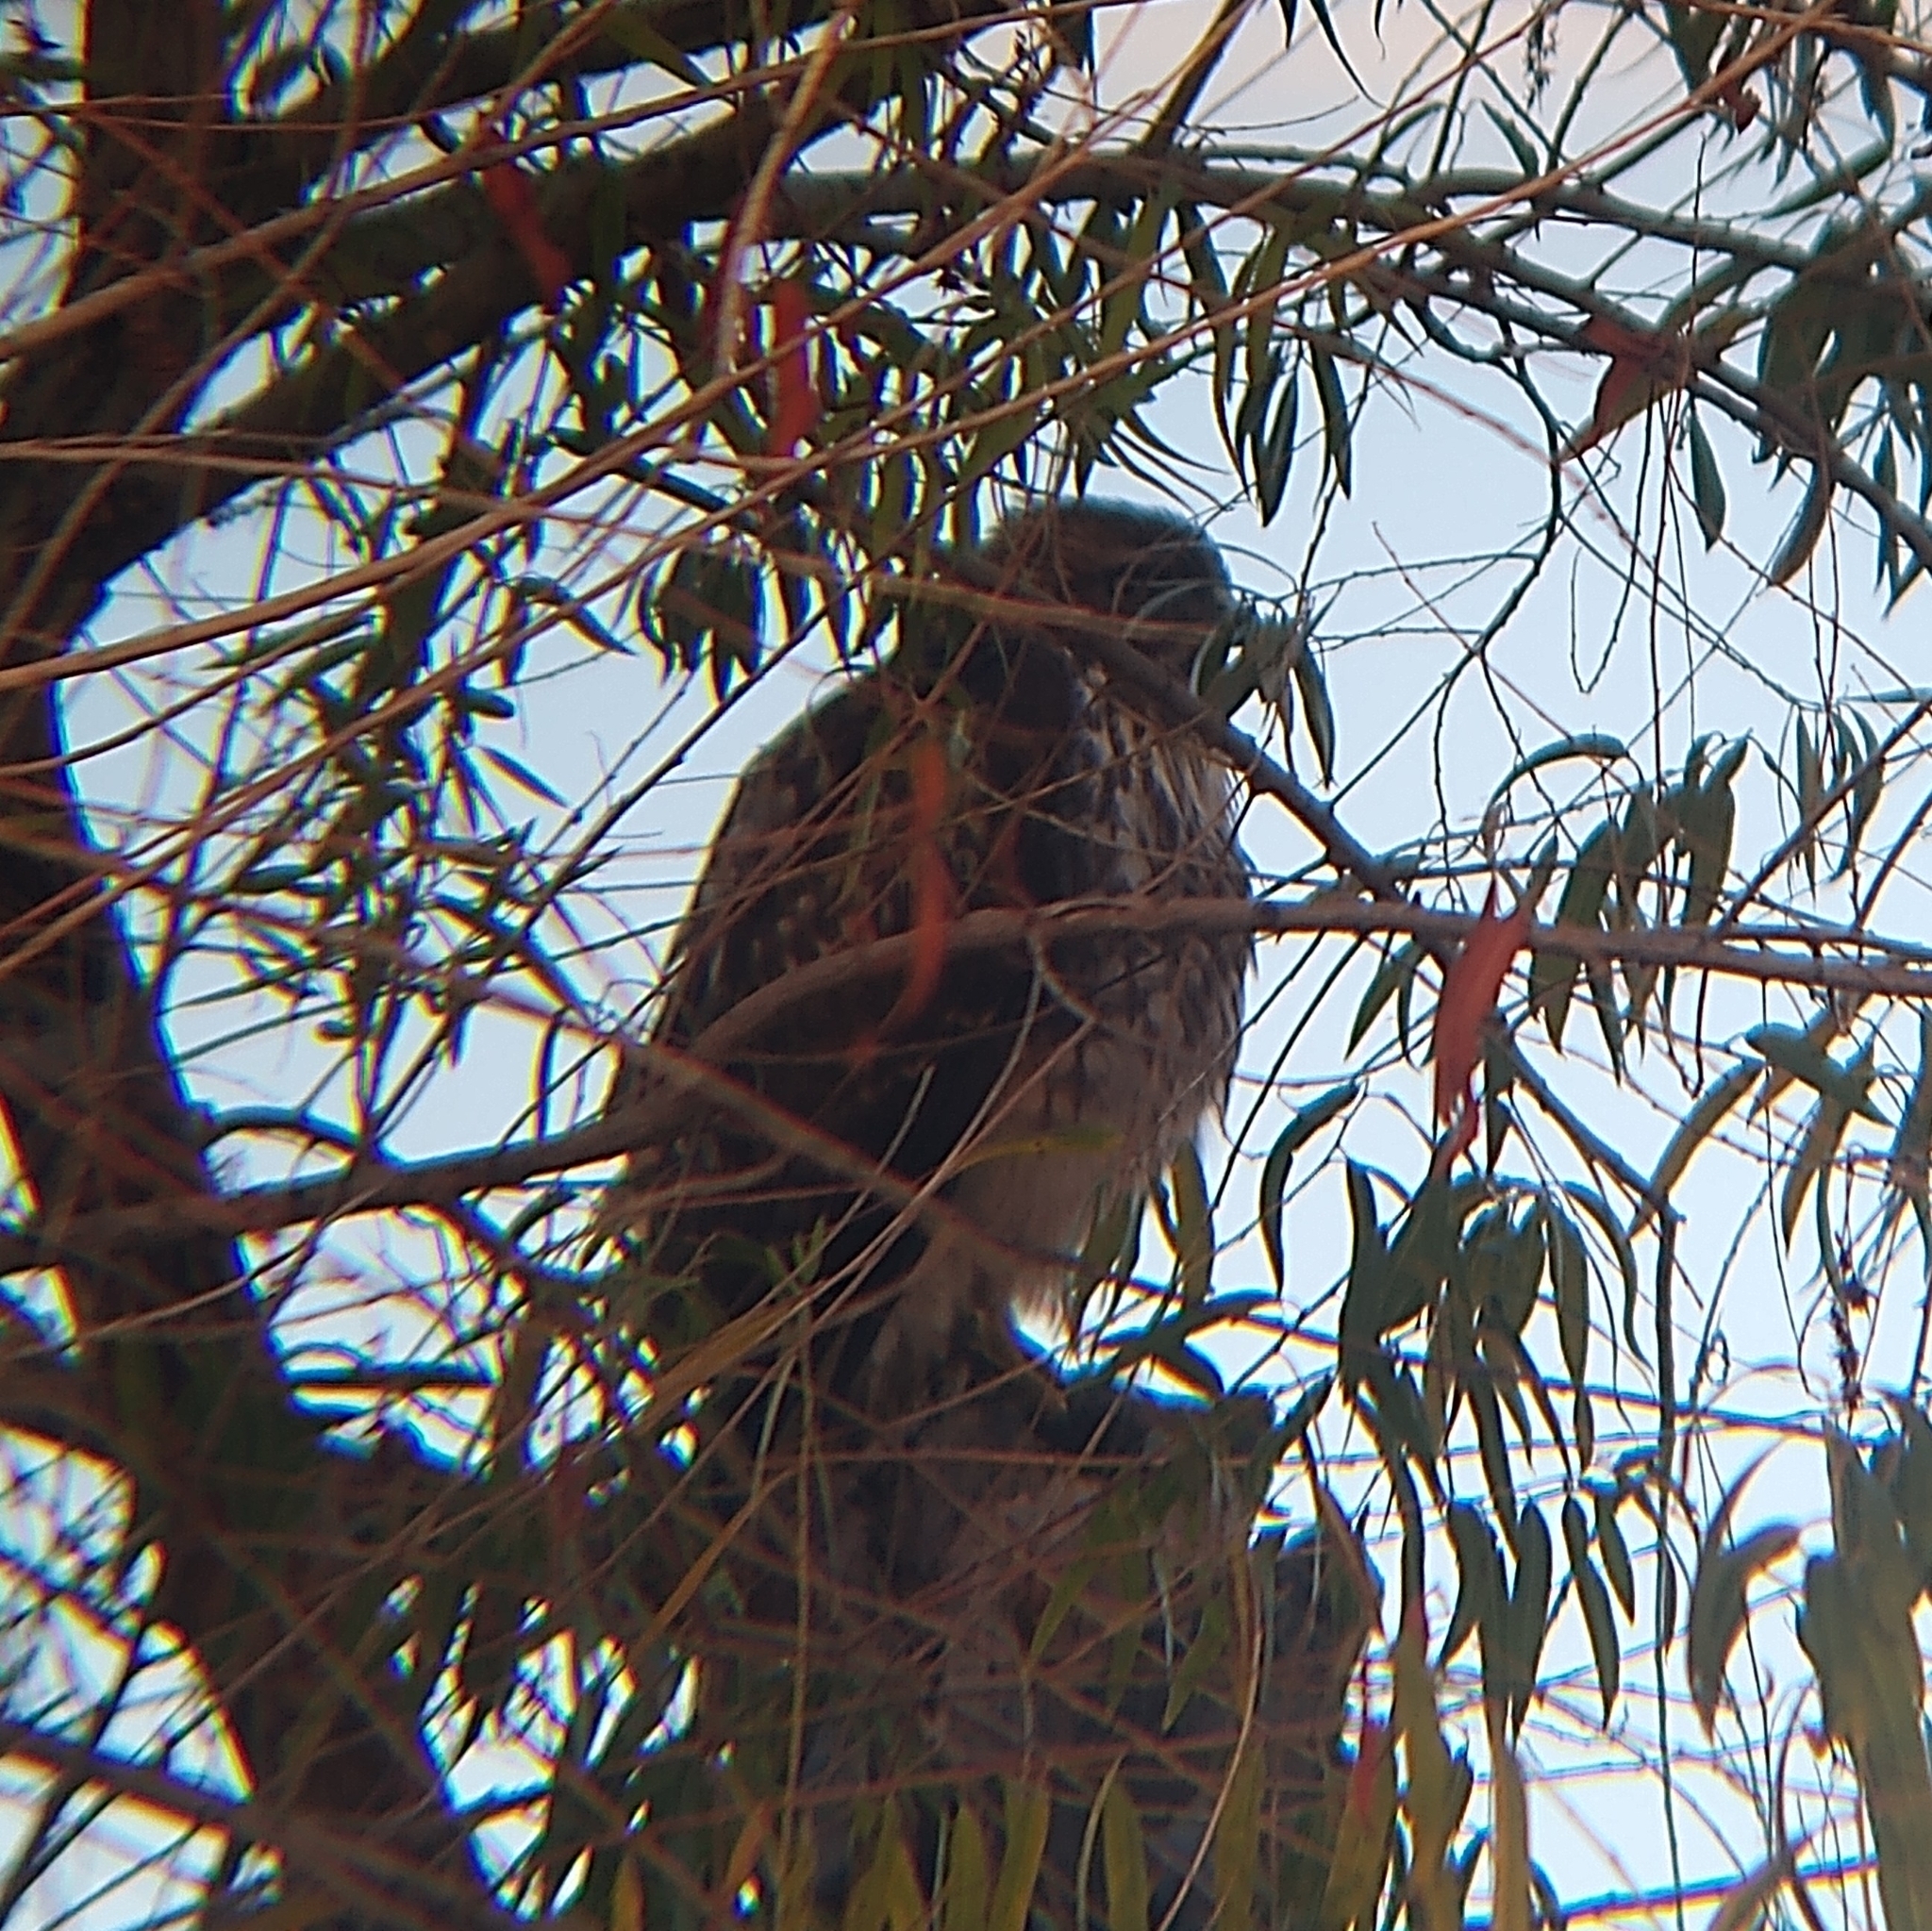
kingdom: Animalia
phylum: Chordata
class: Aves
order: Accipitriformes
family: Accipitridae
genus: Buteo
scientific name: Buteo jamaicensis
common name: Red-tailed hawk
